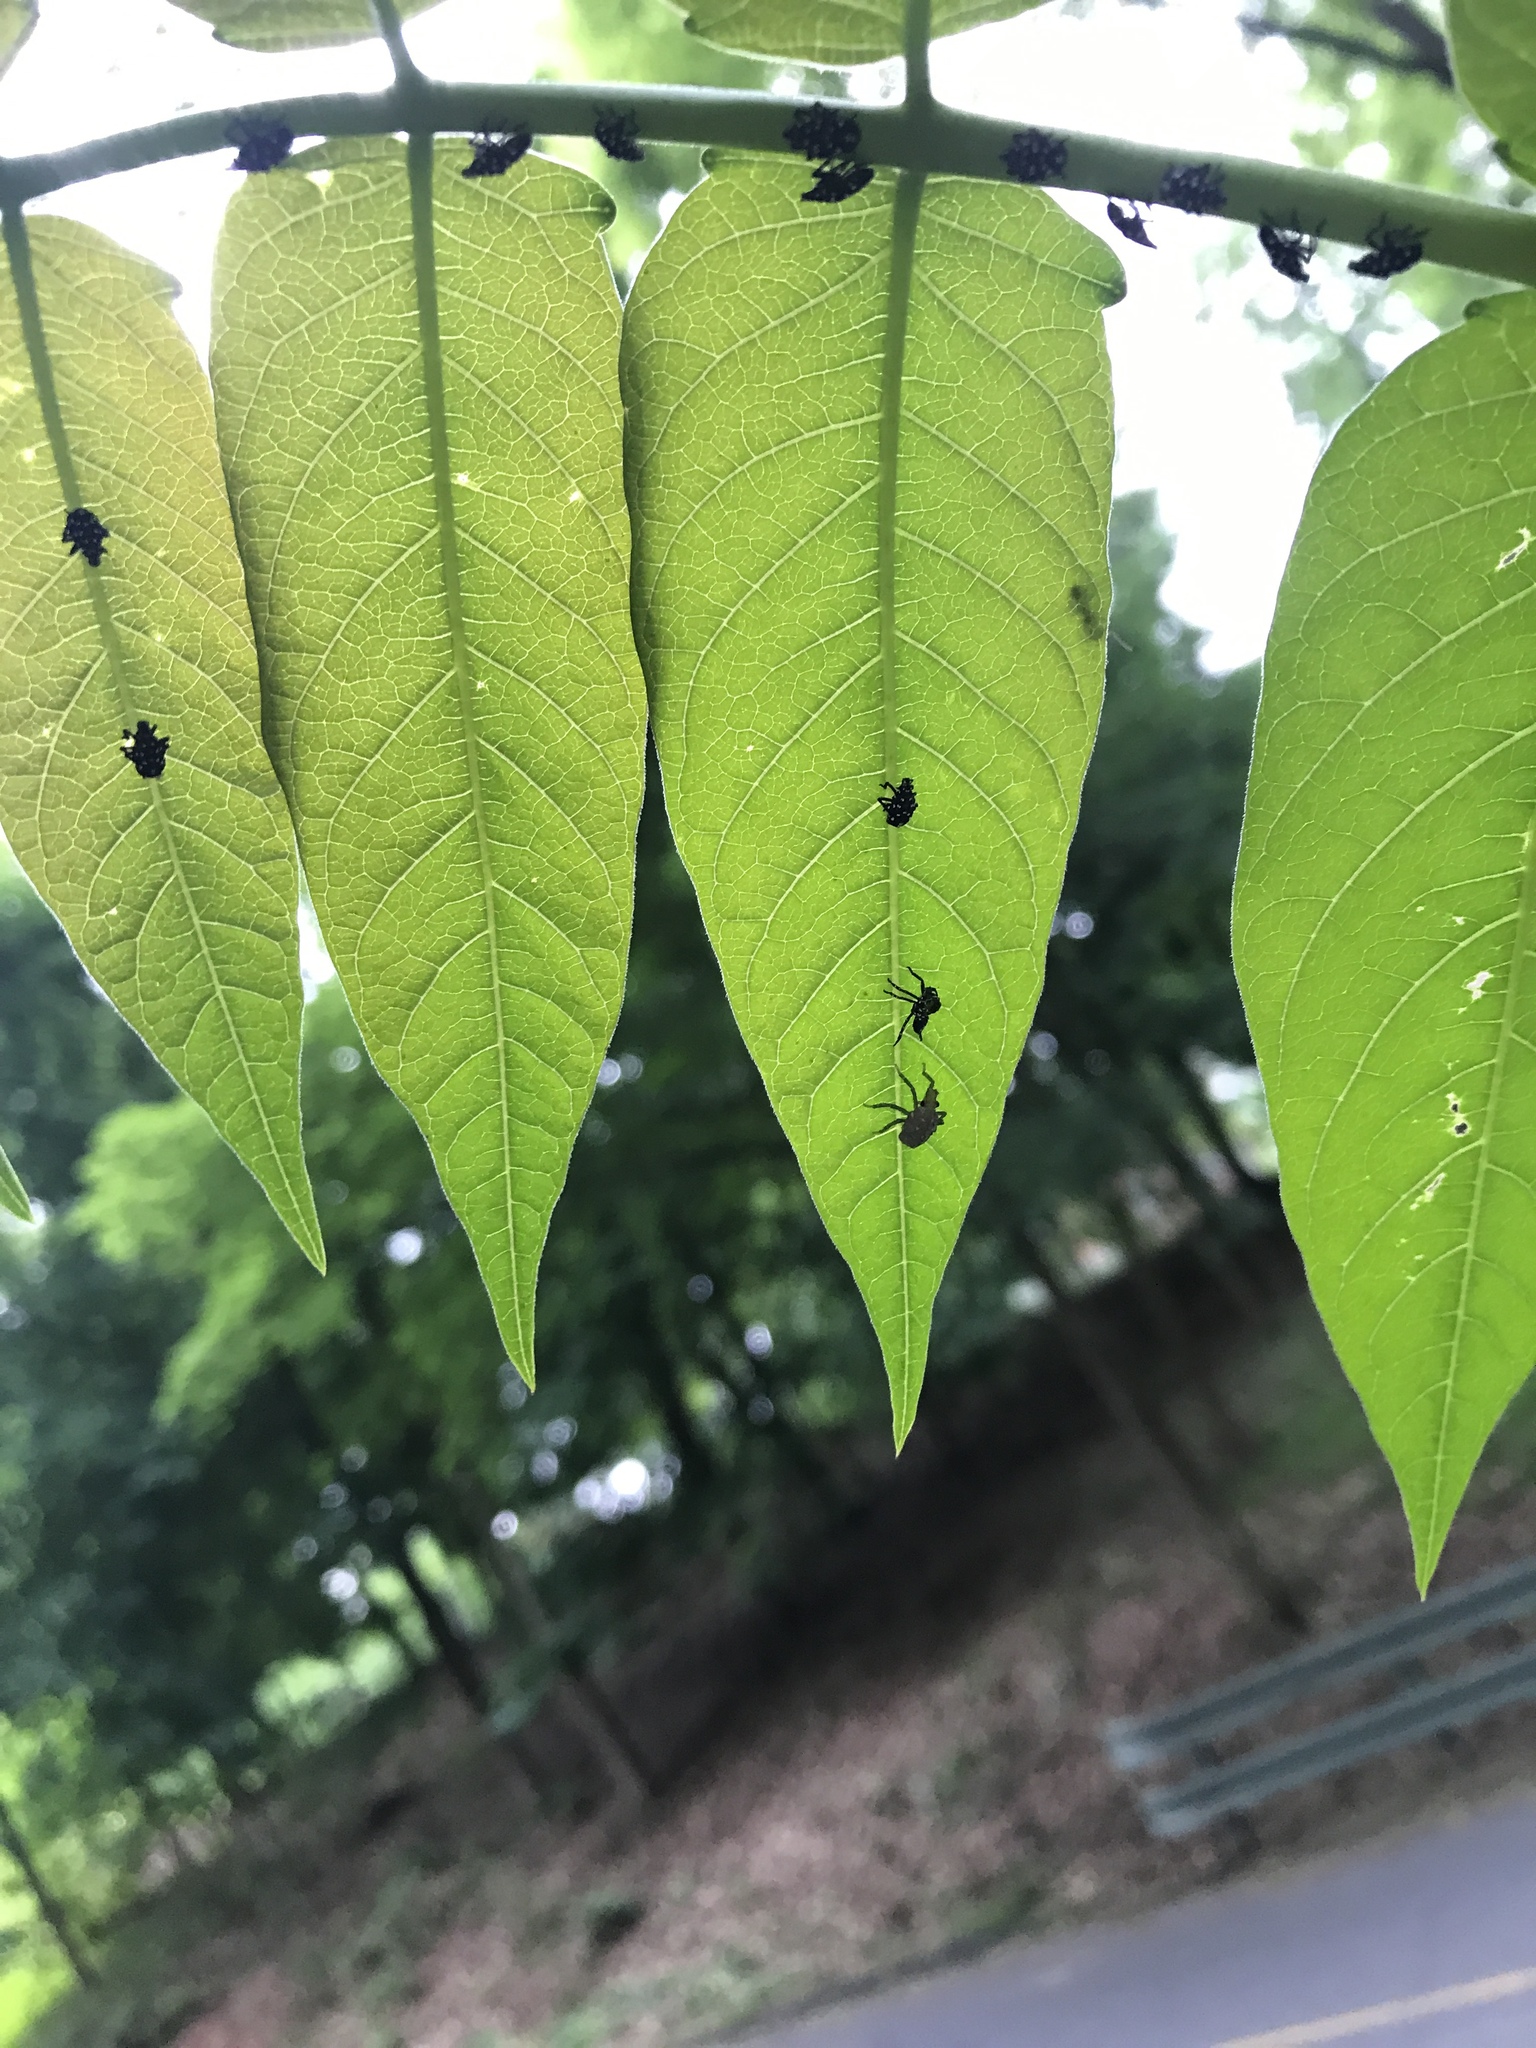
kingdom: Animalia
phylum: Arthropoda
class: Insecta
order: Hemiptera
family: Fulgoridae
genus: Lycorma
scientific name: Lycorma delicatula
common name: Spotted lanternfly
